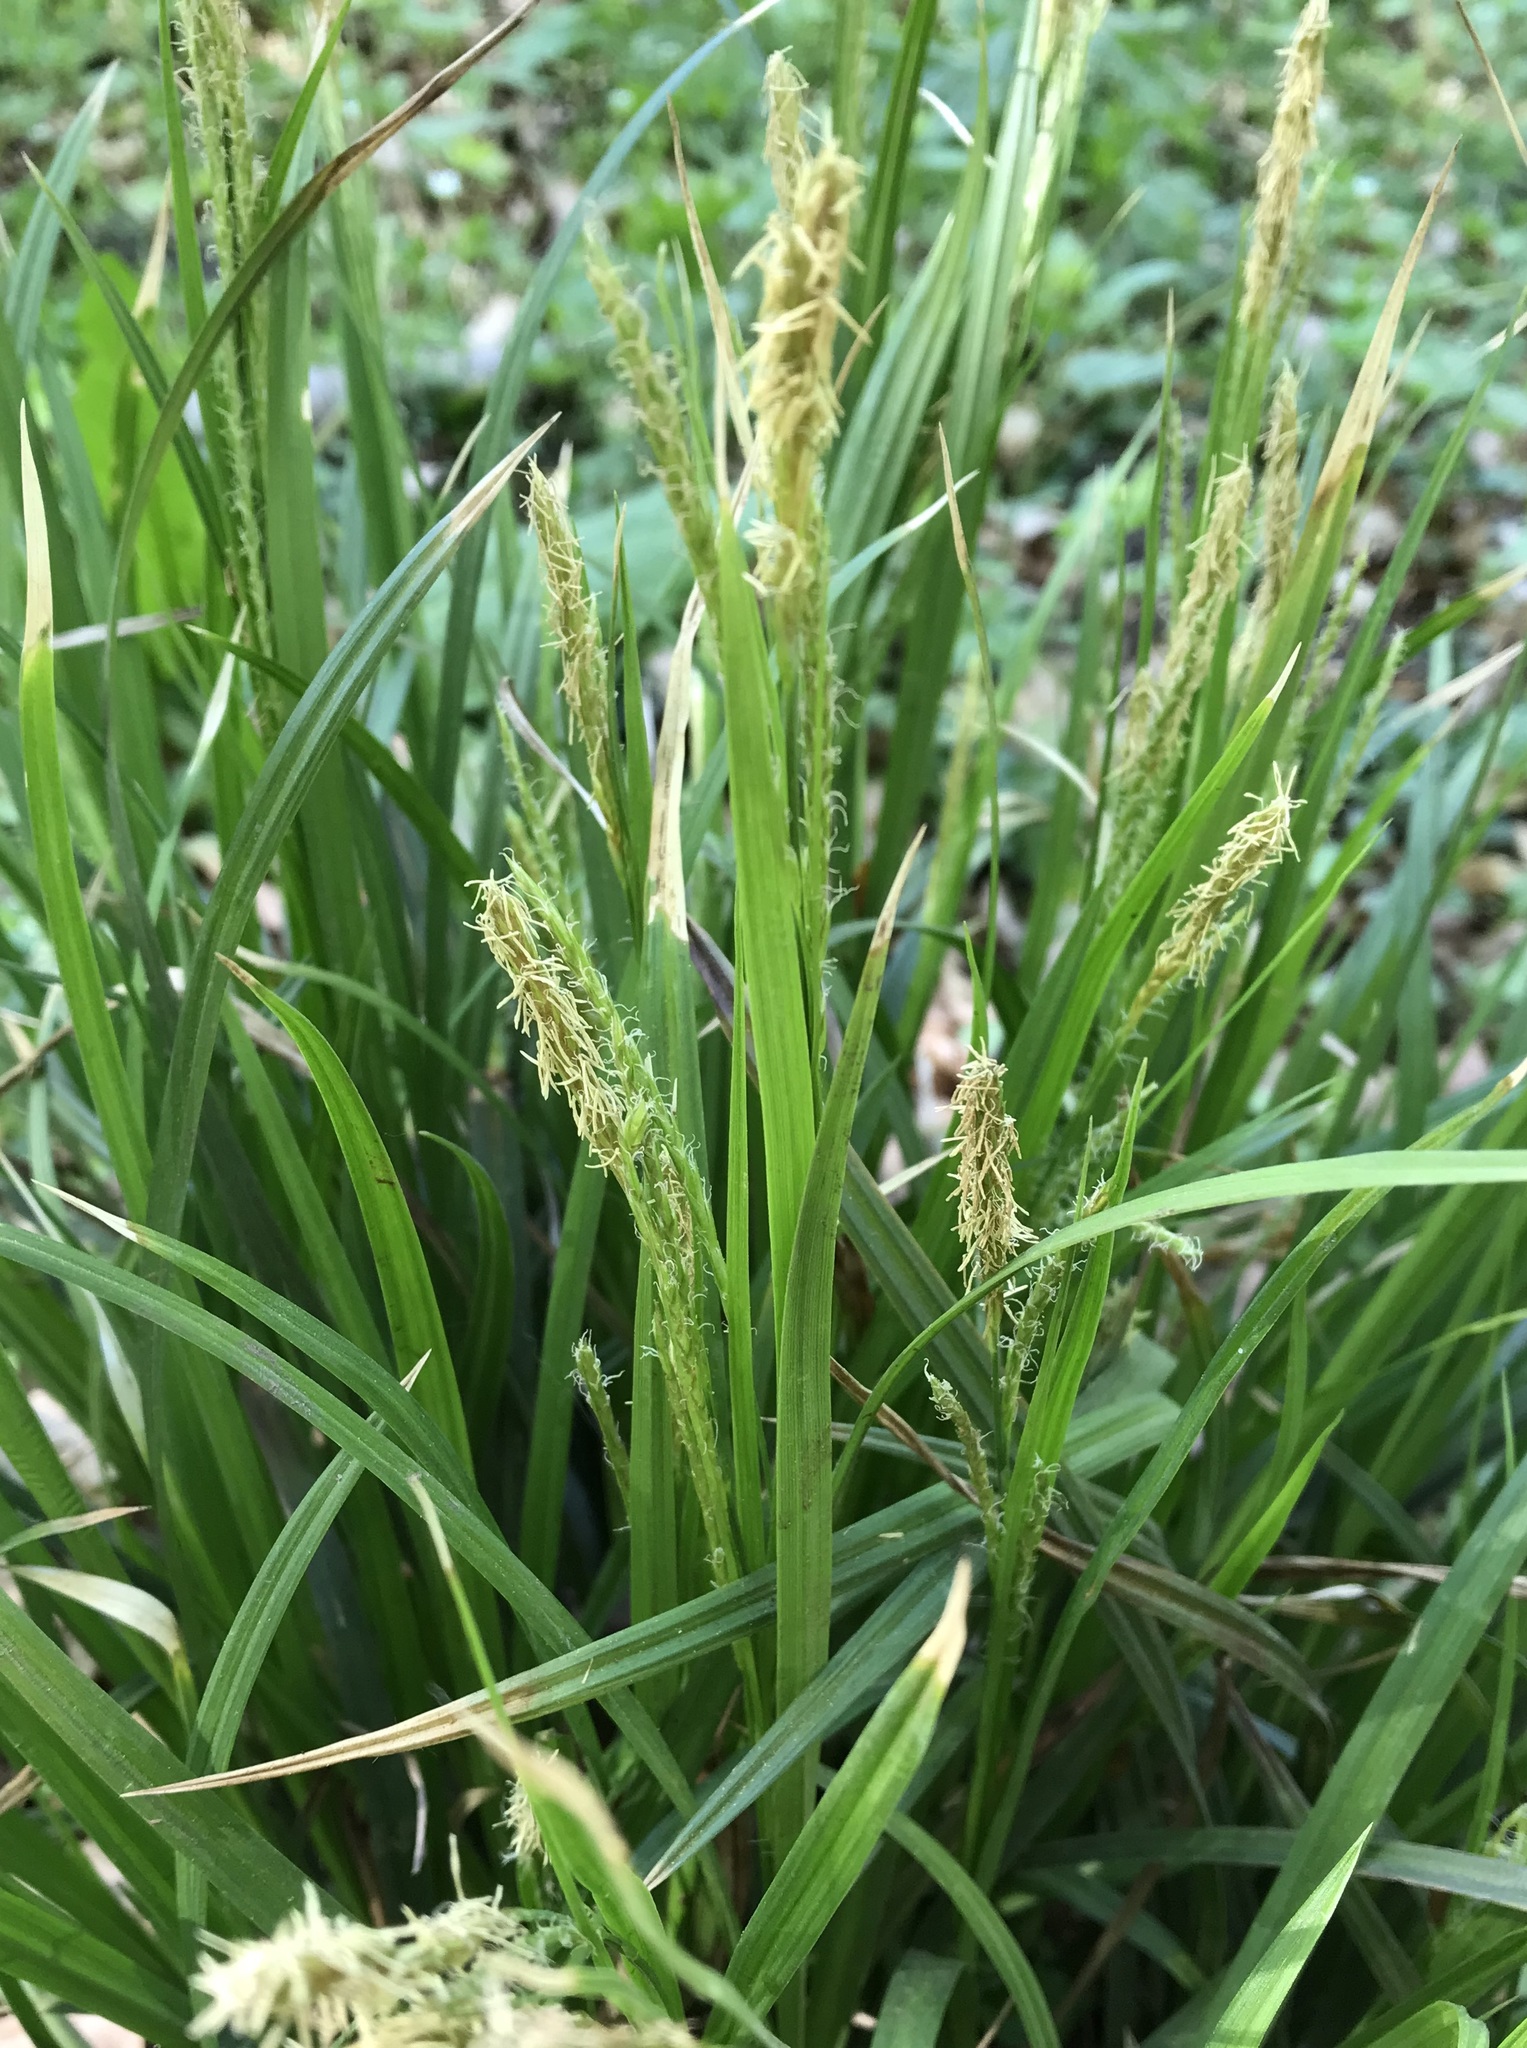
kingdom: Plantae
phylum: Tracheophyta
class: Liliopsida
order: Poales
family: Cyperaceae
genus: Carex
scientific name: Carex sylvatica
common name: Wood-sedge
